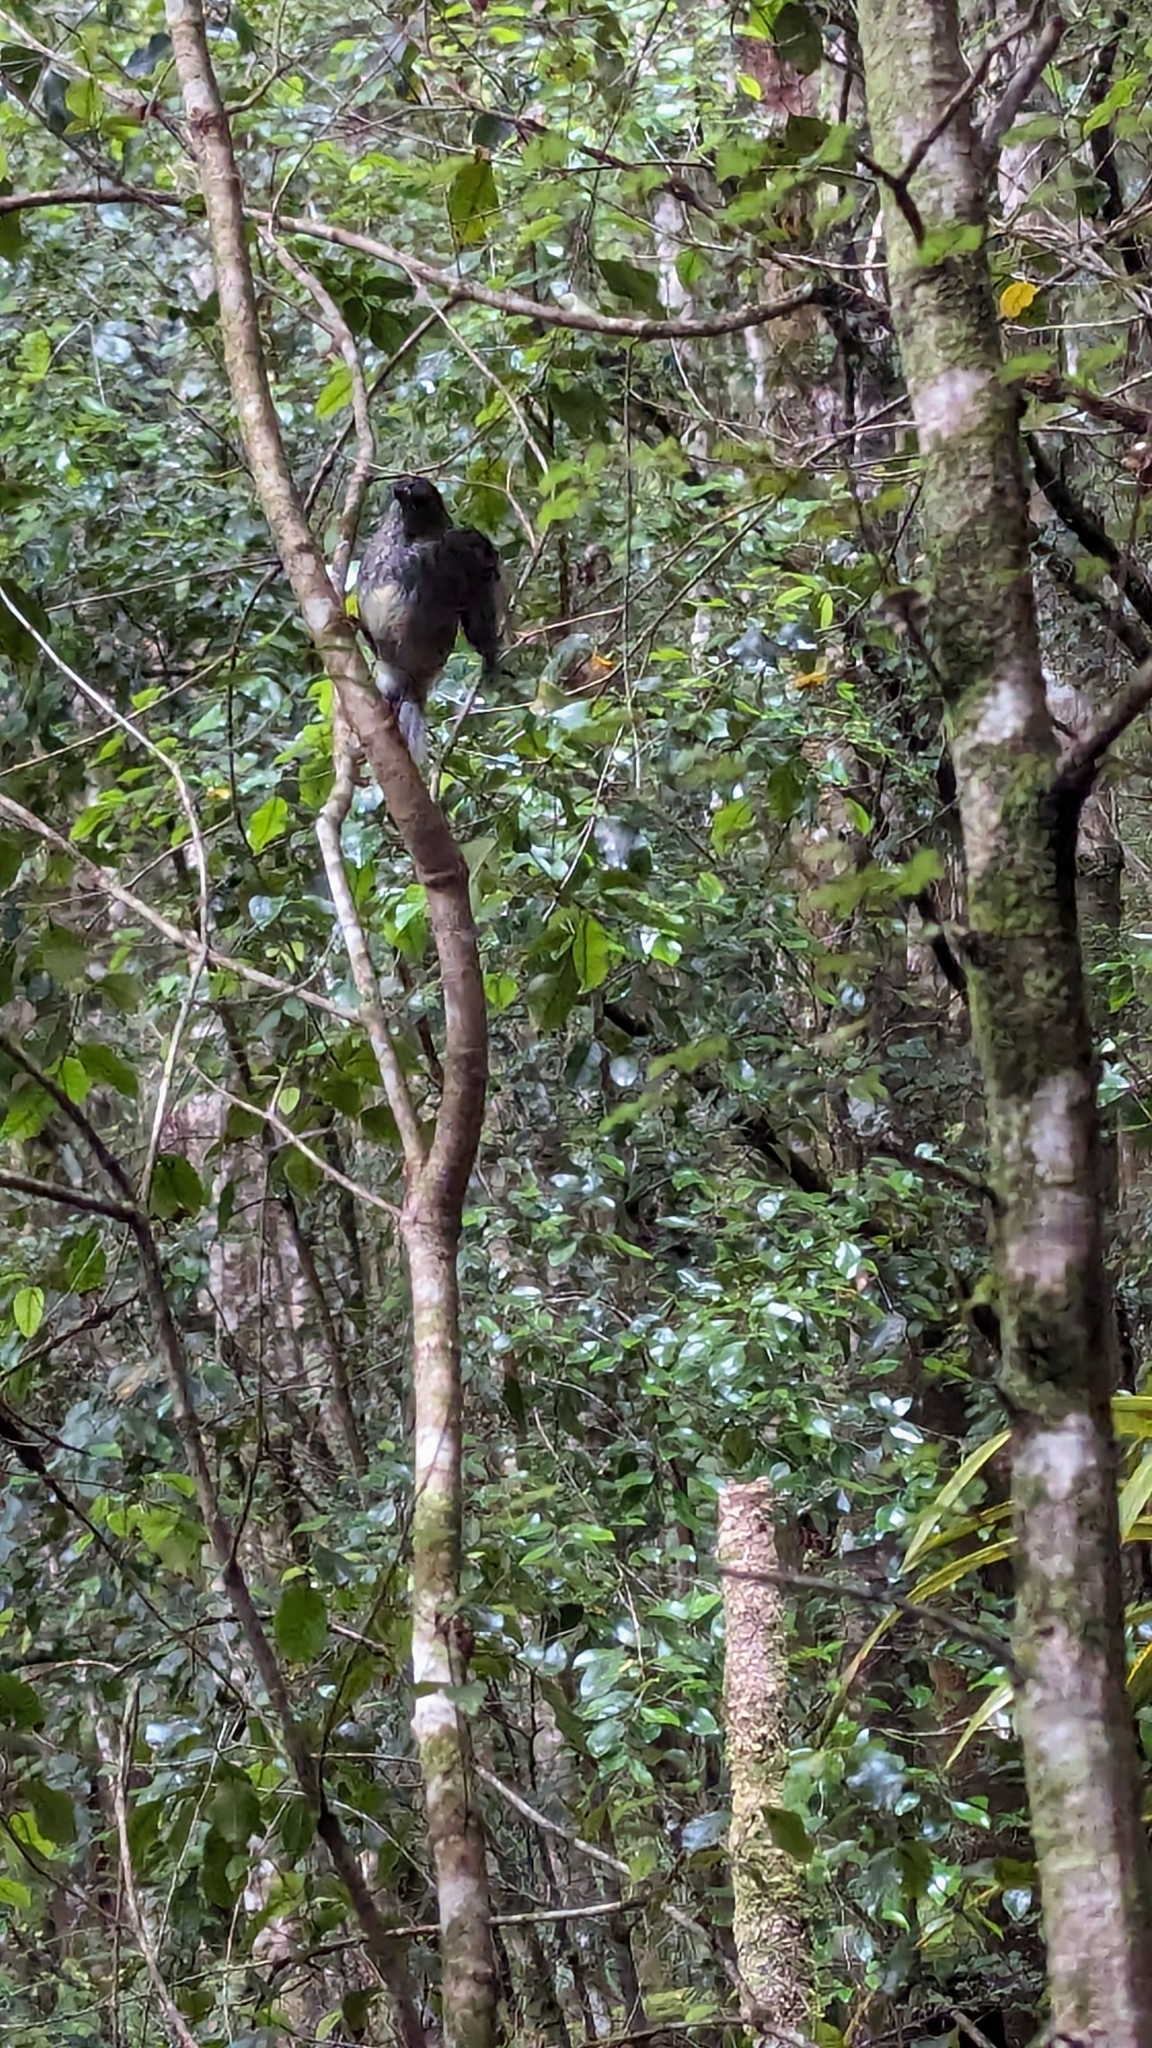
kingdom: Animalia
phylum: Chordata
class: Aves
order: Passeriformes
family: Petroicidae
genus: Petroica
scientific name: Petroica australis
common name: New zealand robin
